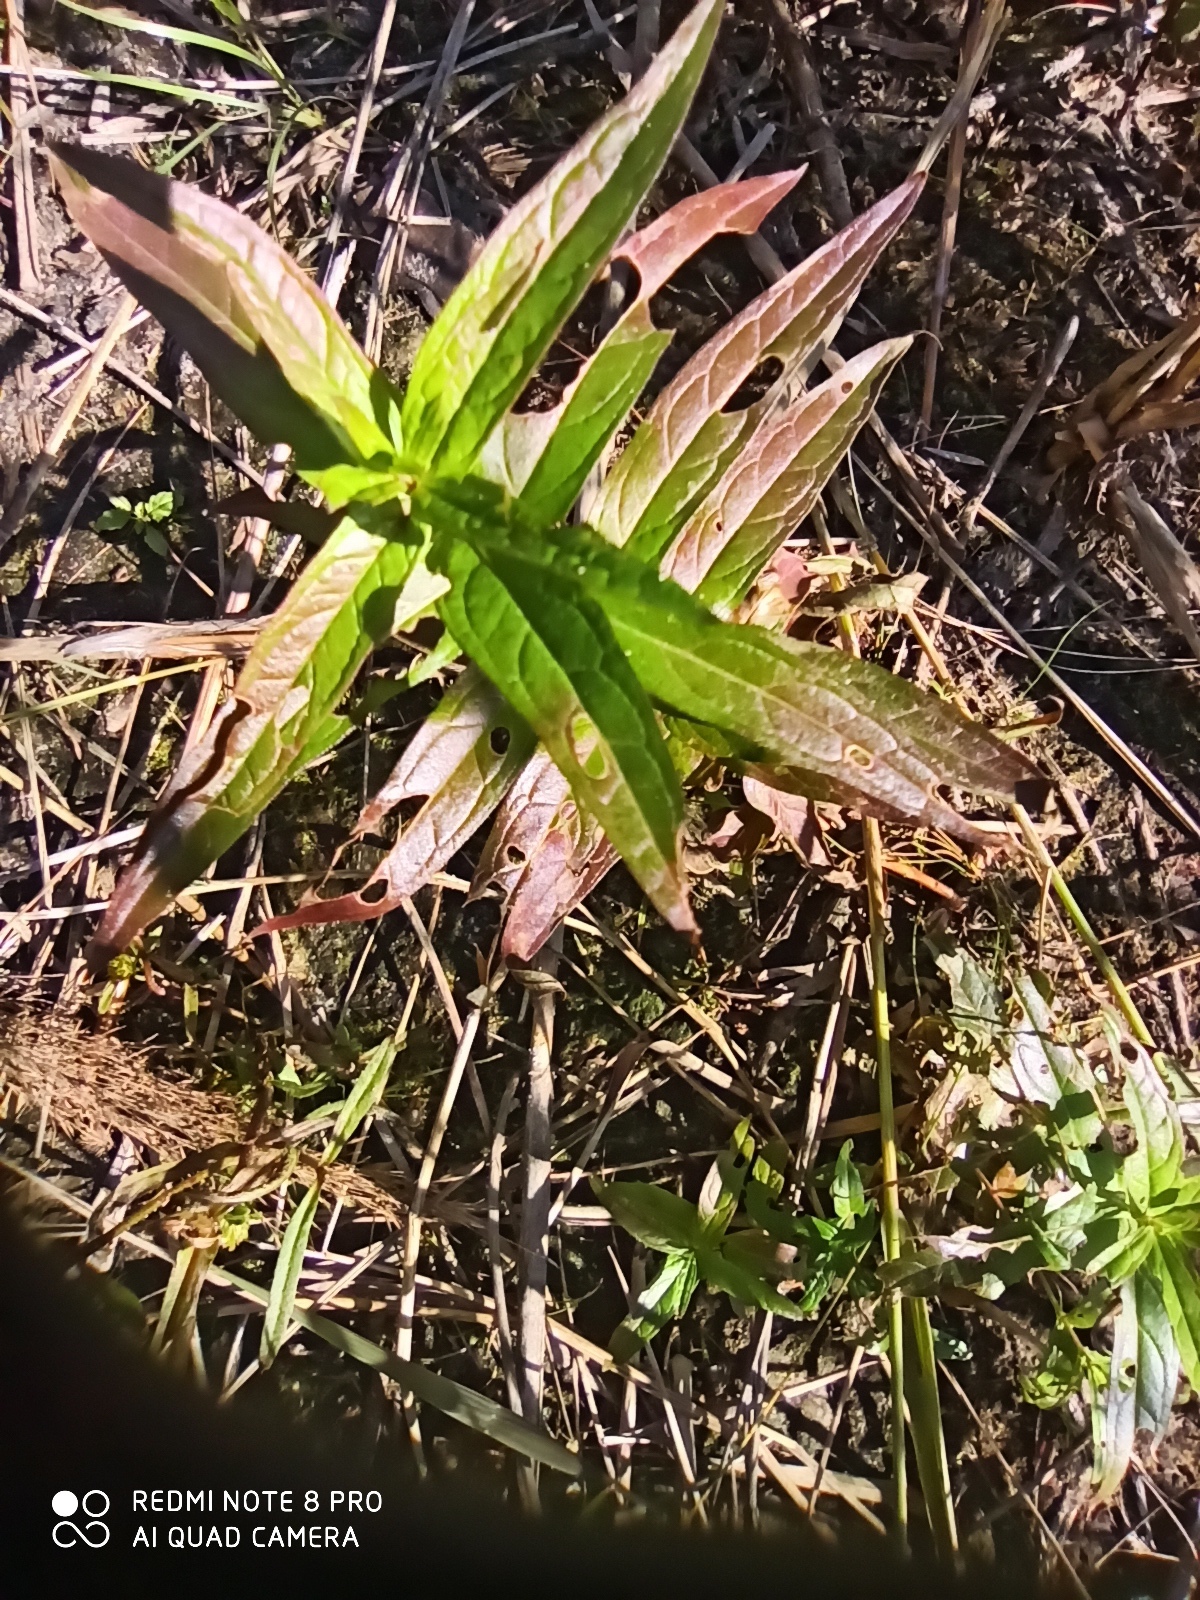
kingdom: Plantae
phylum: Tracheophyta
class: Magnoliopsida
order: Ericales
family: Primulaceae
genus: Lysimachia
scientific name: Lysimachia thyrsiflora
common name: Tufted loosestrife
